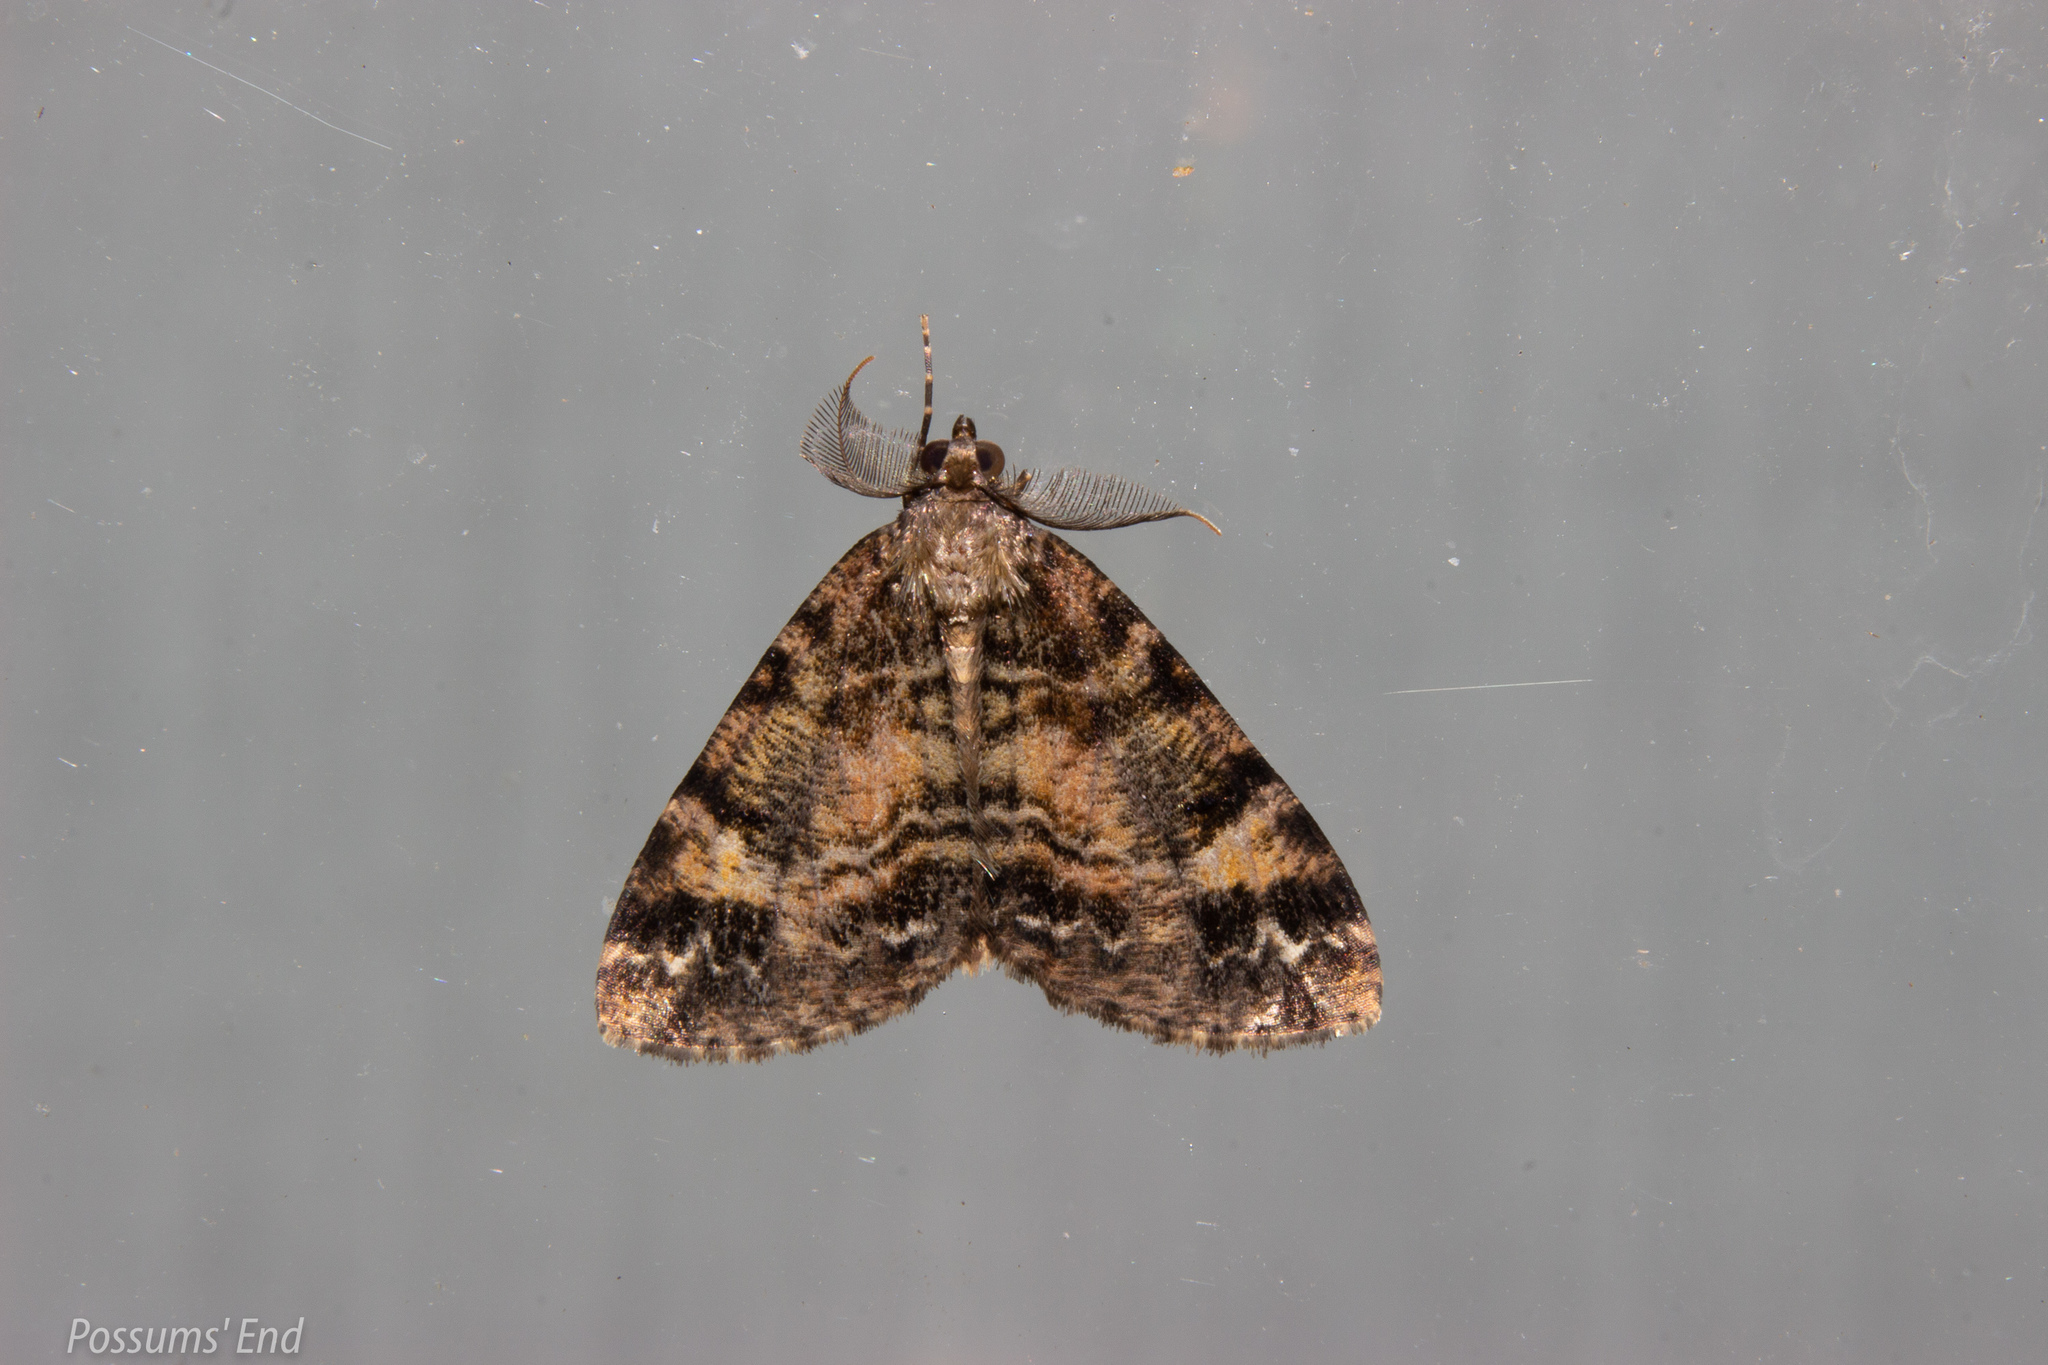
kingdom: Animalia
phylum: Arthropoda
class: Insecta
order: Lepidoptera
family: Geometridae
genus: Pseudocoremia
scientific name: Pseudocoremia productata
